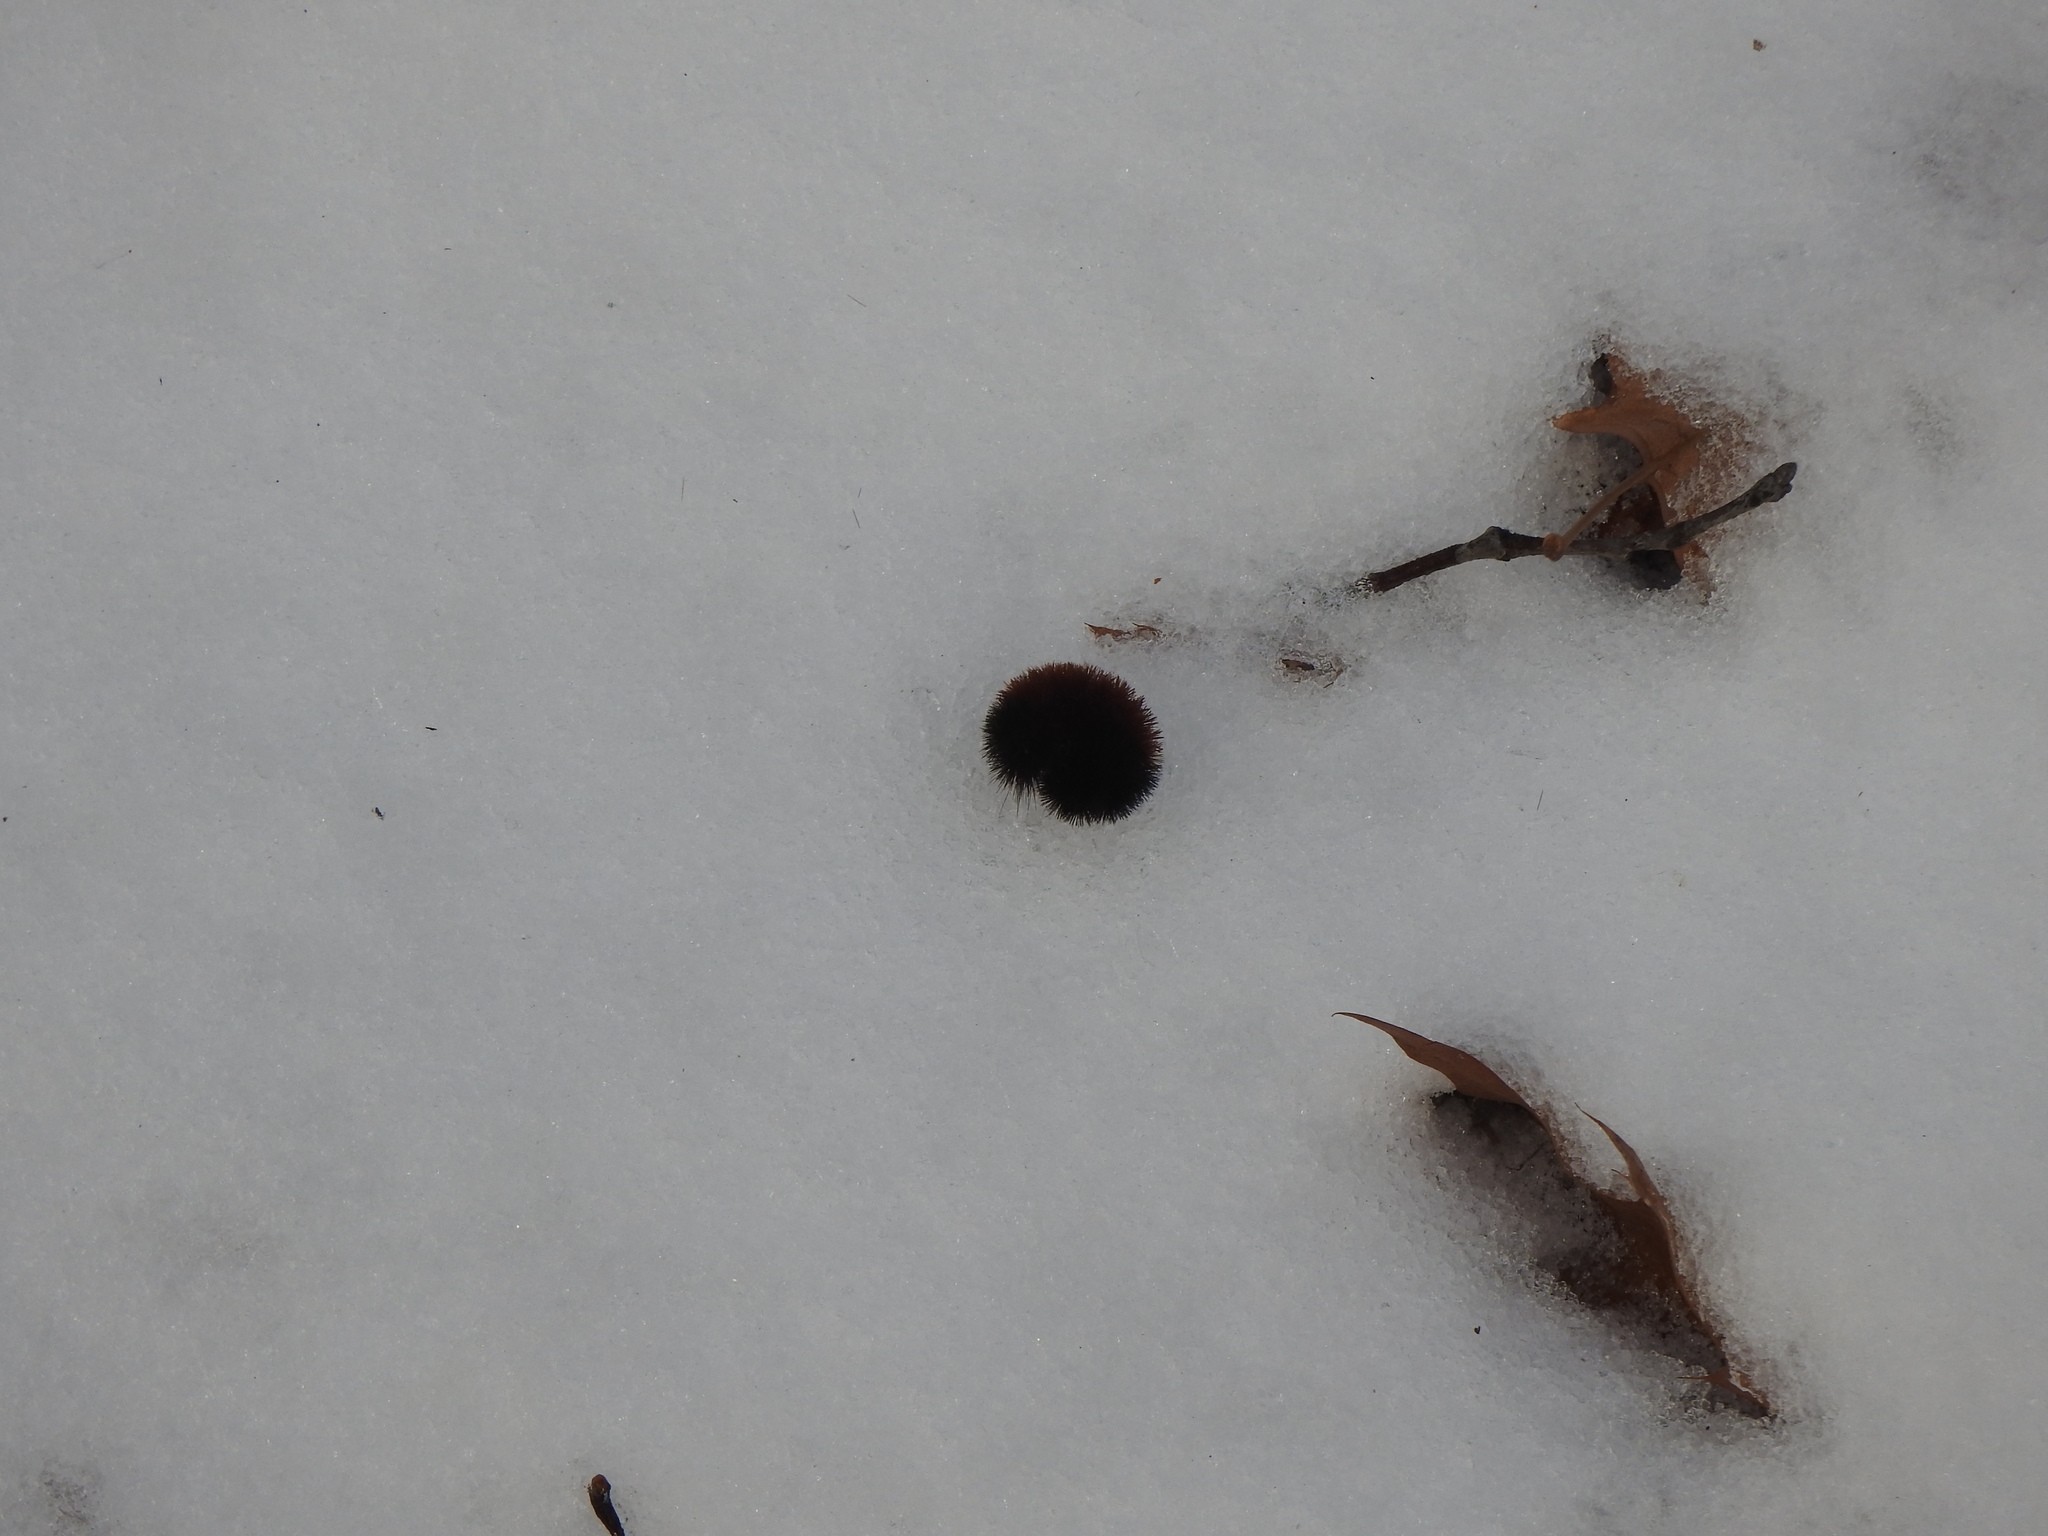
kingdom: Animalia
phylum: Arthropoda
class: Insecta
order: Lepidoptera
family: Erebidae
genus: Pyrrharctia
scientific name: Pyrrharctia isabella
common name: Isabella tiger moth
